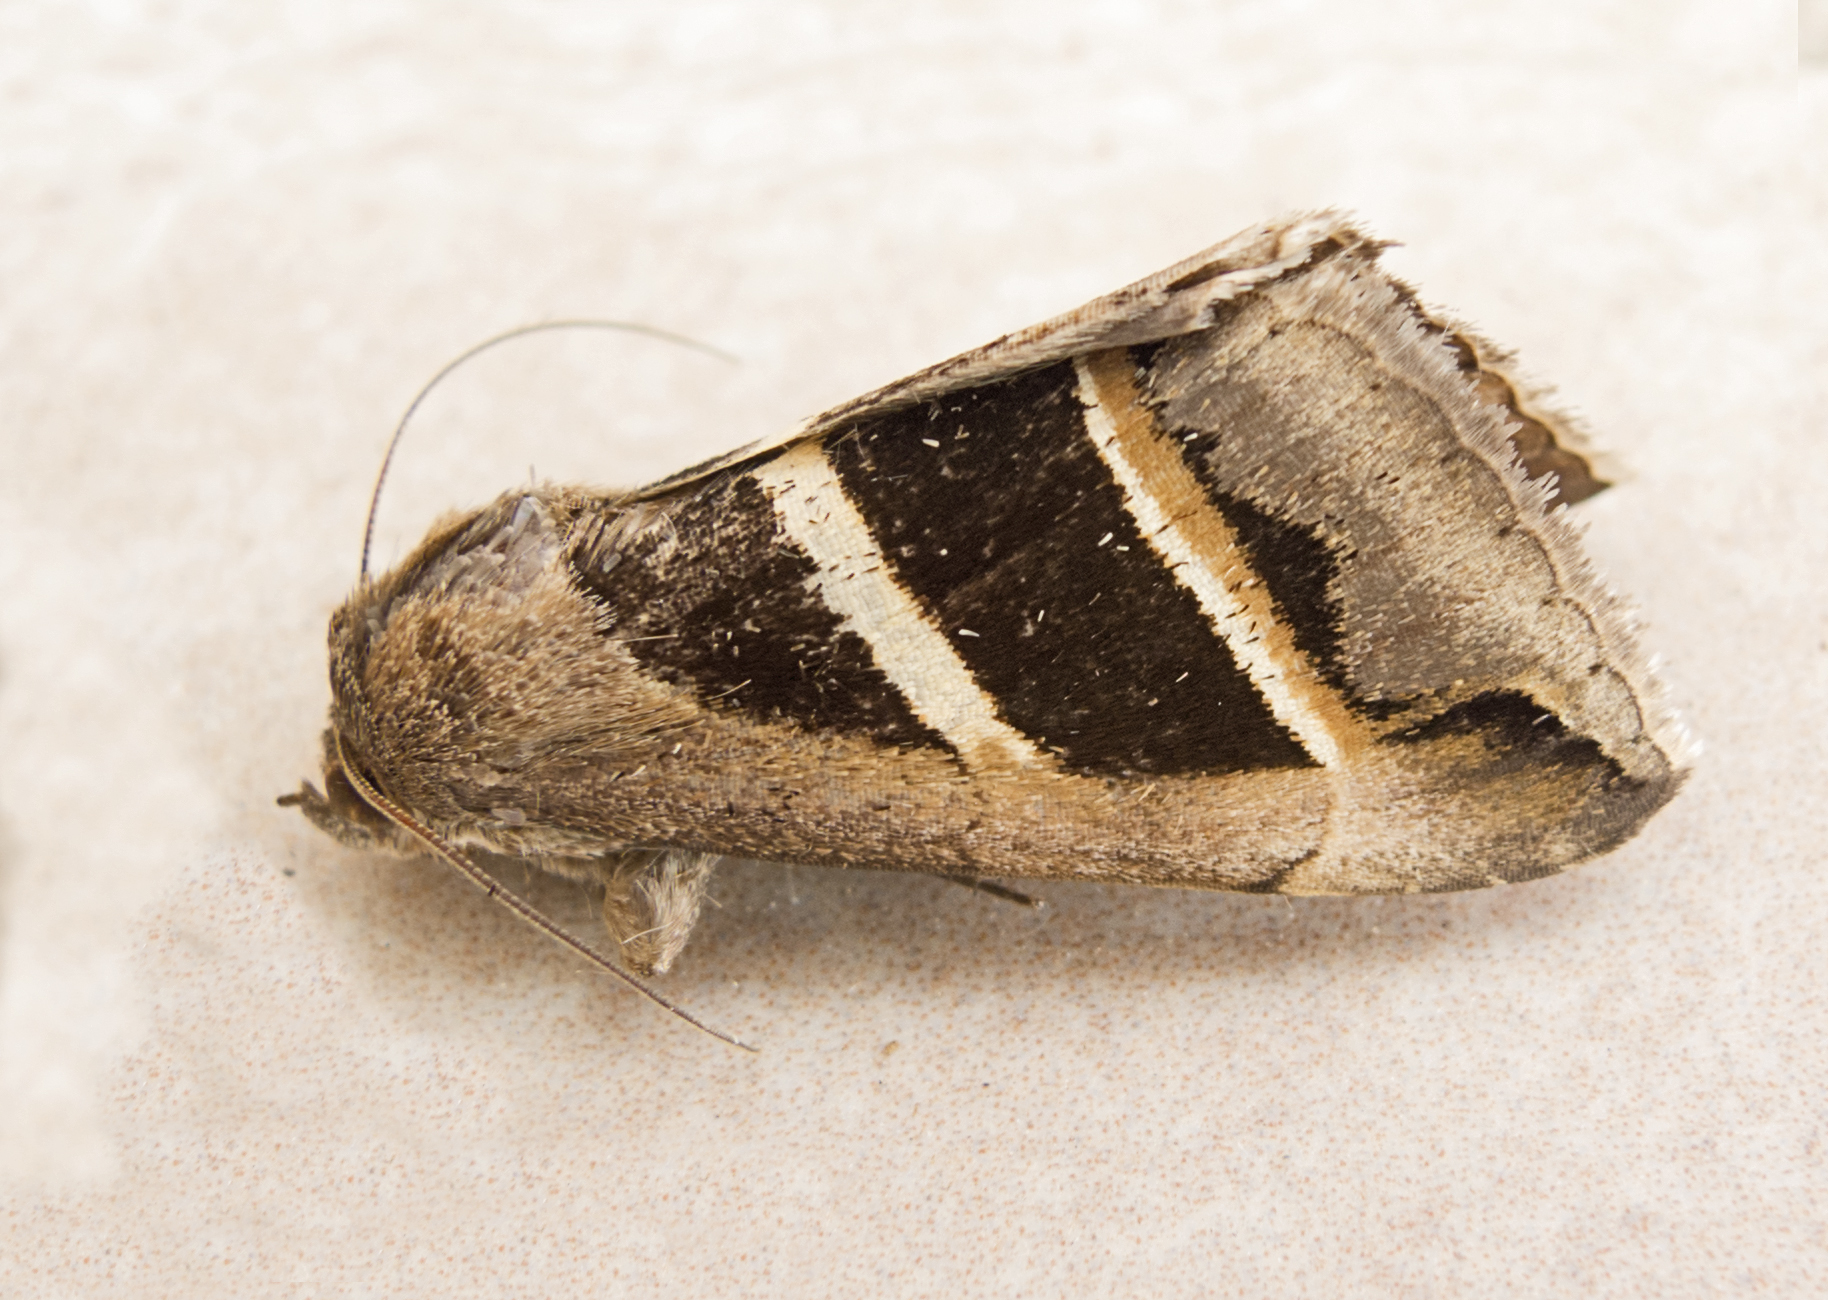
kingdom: Animalia
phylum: Arthropoda
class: Insecta
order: Lepidoptera
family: Erebidae
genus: Grammodes
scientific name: Grammodes bifasciata
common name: Parallel lines
